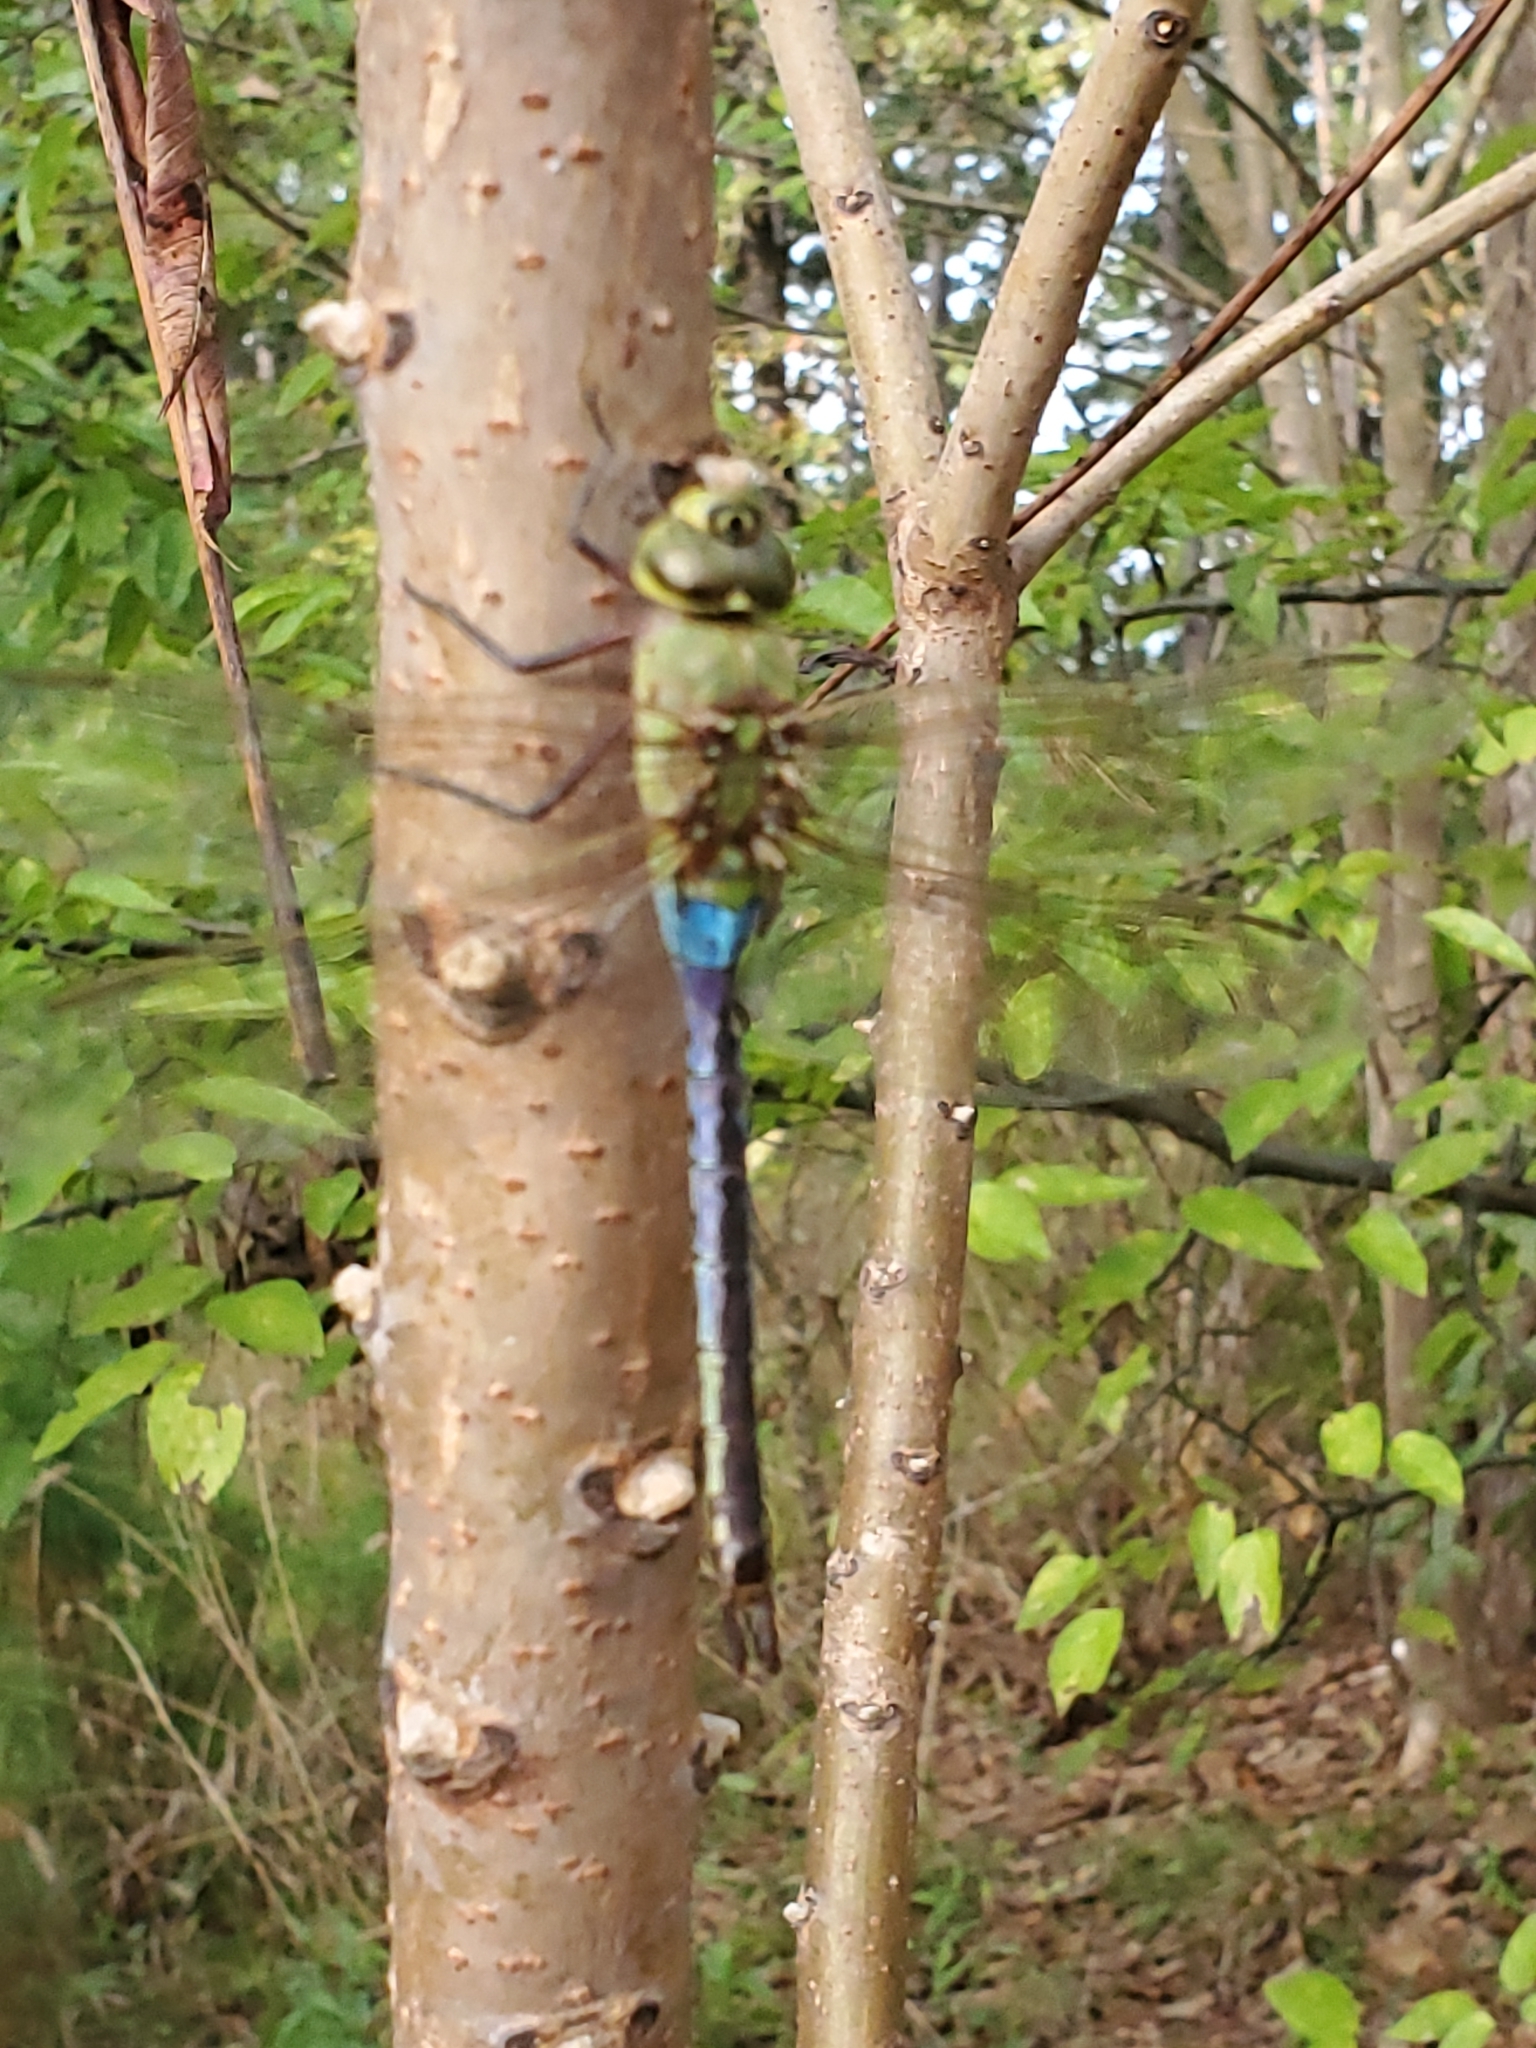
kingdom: Animalia
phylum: Arthropoda
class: Insecta
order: Odonata
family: Aeshnidae
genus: Anax
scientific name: Anax junius
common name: Common green darner
